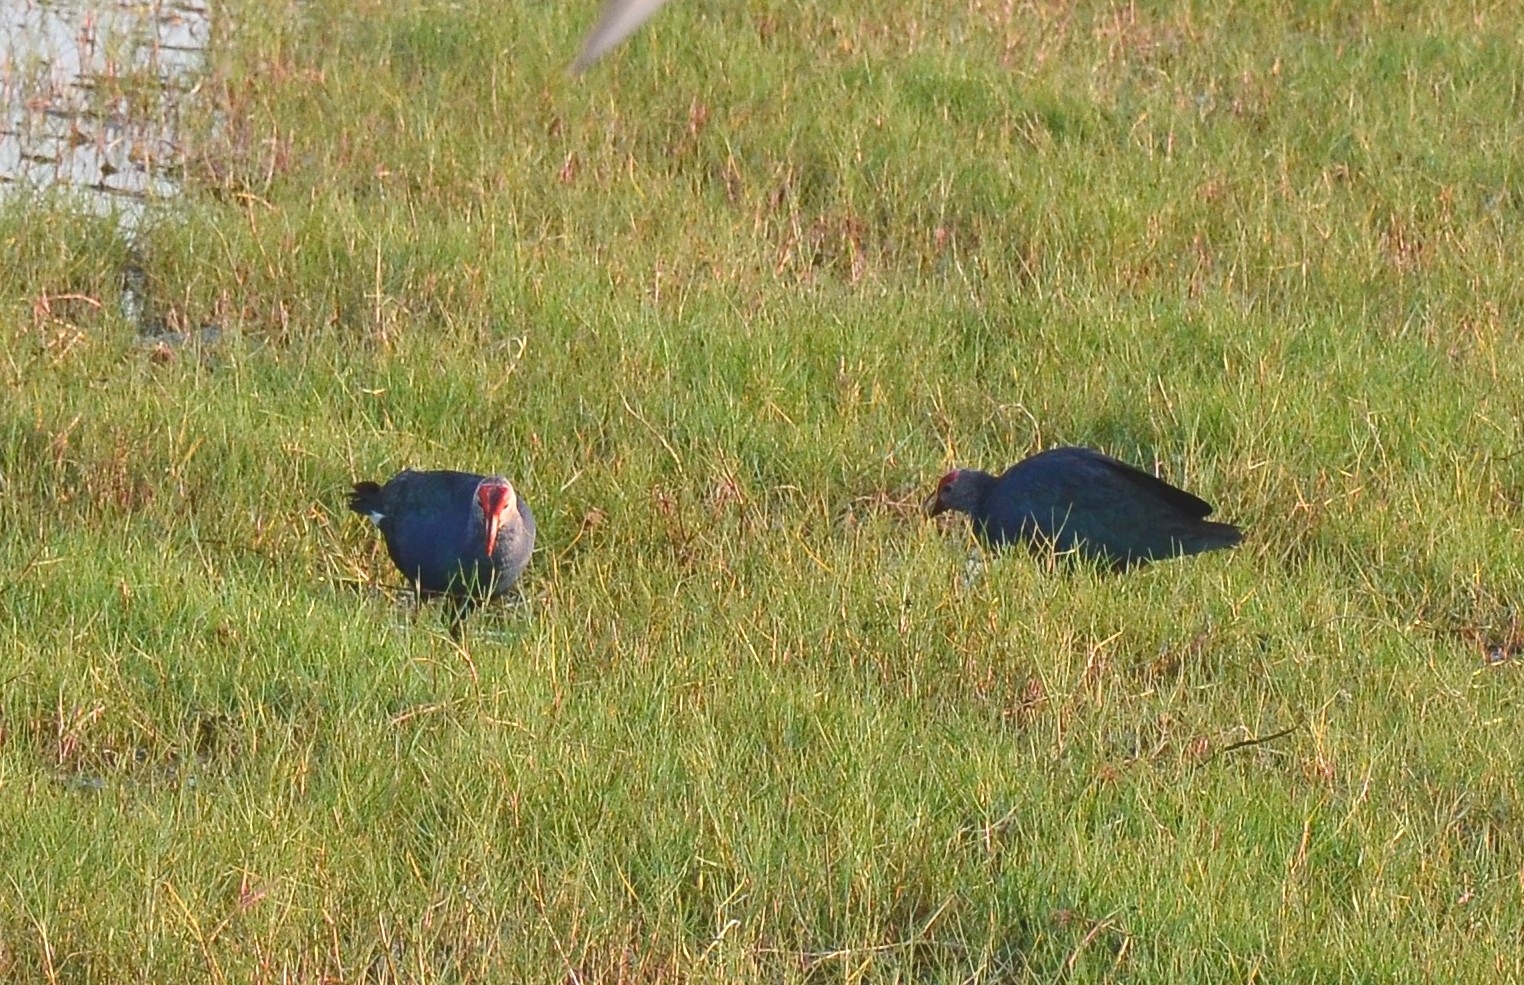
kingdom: Animalia
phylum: Chordata
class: Aves
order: Gruiformes
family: Rallidae
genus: Porphyrio
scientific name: Porphyrio porphyrio
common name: Purple swamphen
